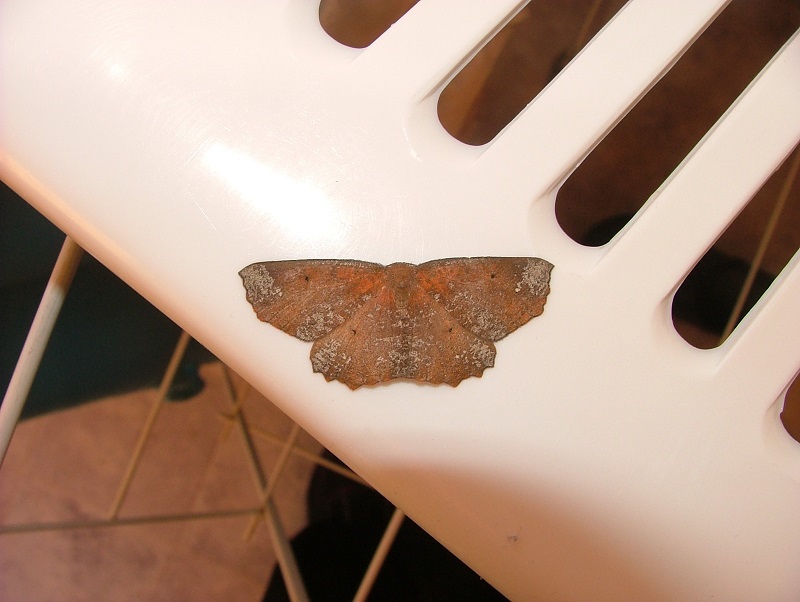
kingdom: Animalia
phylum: Arthropoda
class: Insecta
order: Lepidoptera
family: Geometridae
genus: Xyridacma
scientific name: Xyridacma ustaria
